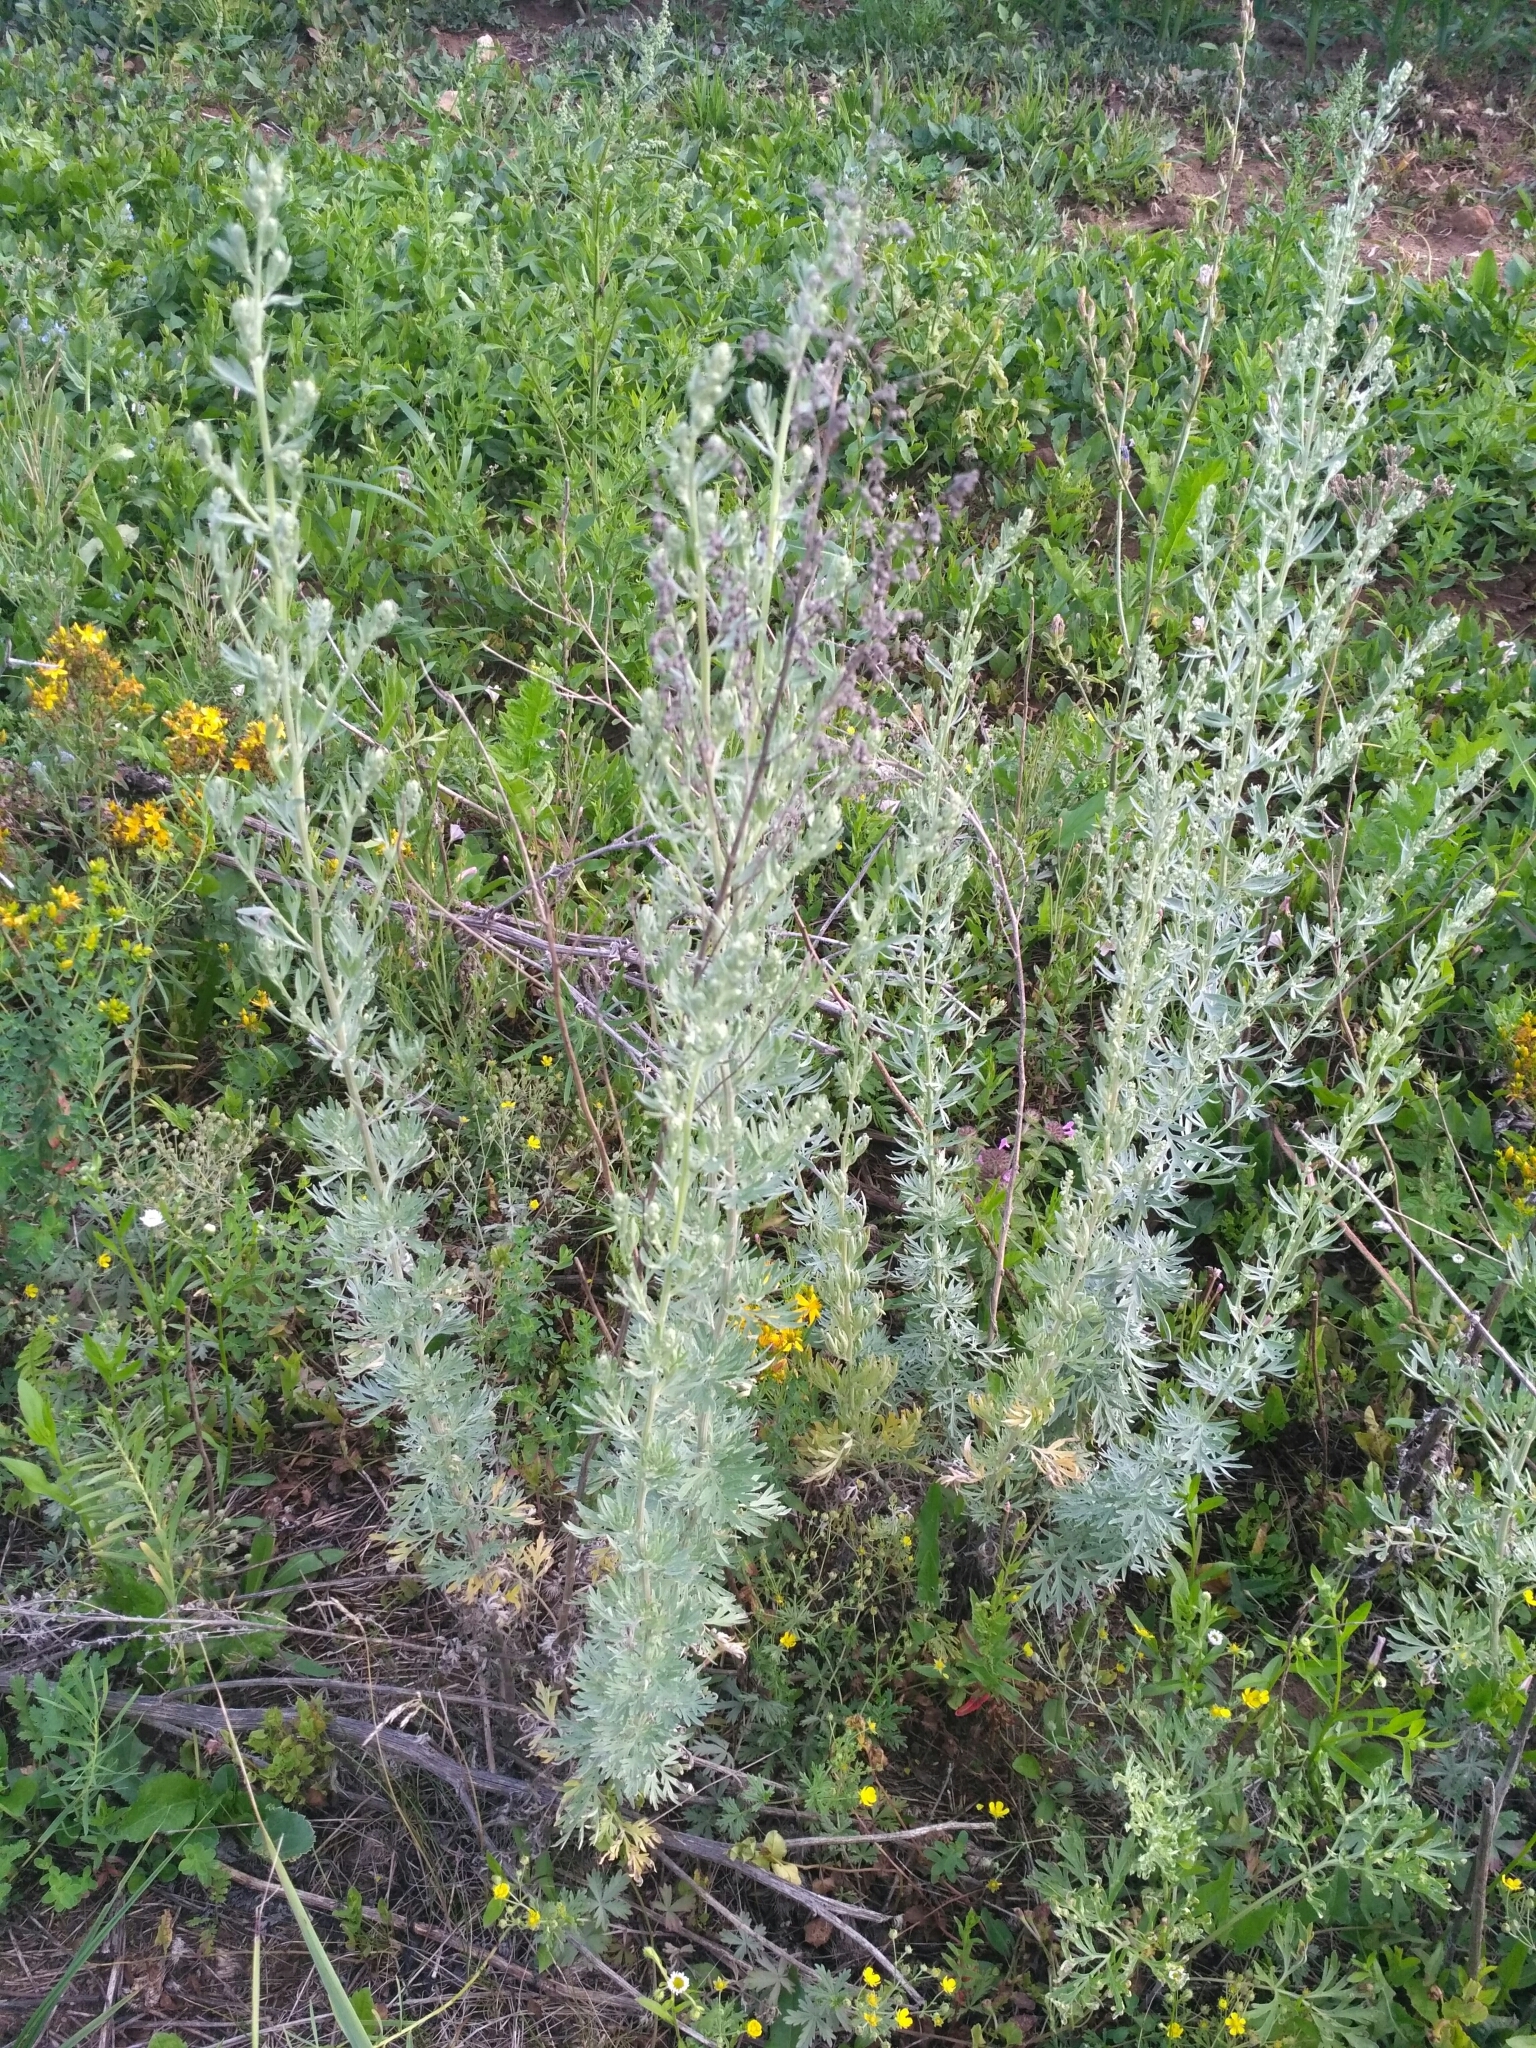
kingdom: Plantae
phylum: Tracheophyta
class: Magnoliopsida
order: Asterales
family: Asteraceae
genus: Artemisia
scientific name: Artemisia absinthium
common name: Wormwood
